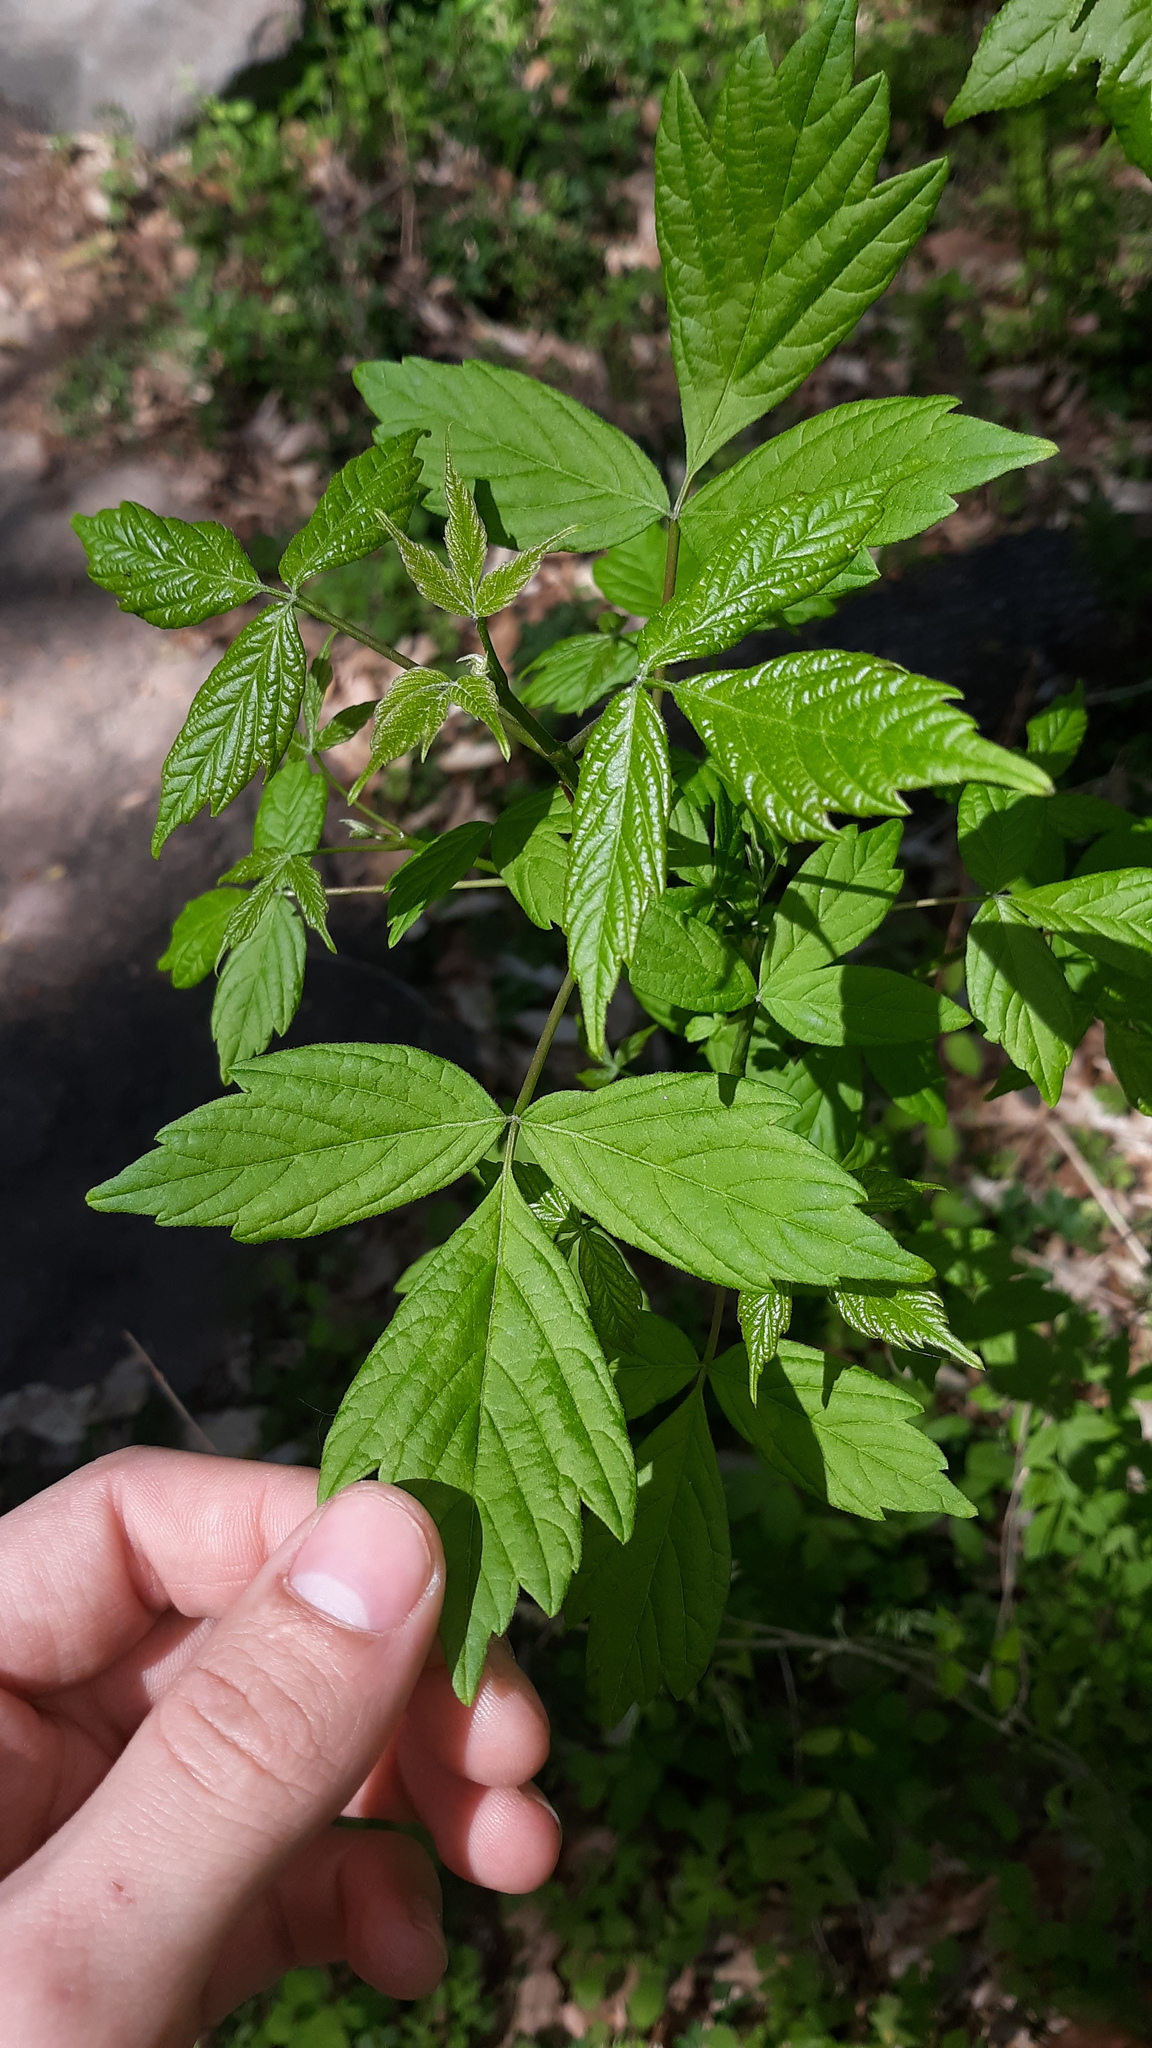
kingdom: Plantae
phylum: Tracheophyta
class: Magnoliopsida
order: Sapindales
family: Sapindaceae
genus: Acer
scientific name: Acer negundo
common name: Ashleaf maple
